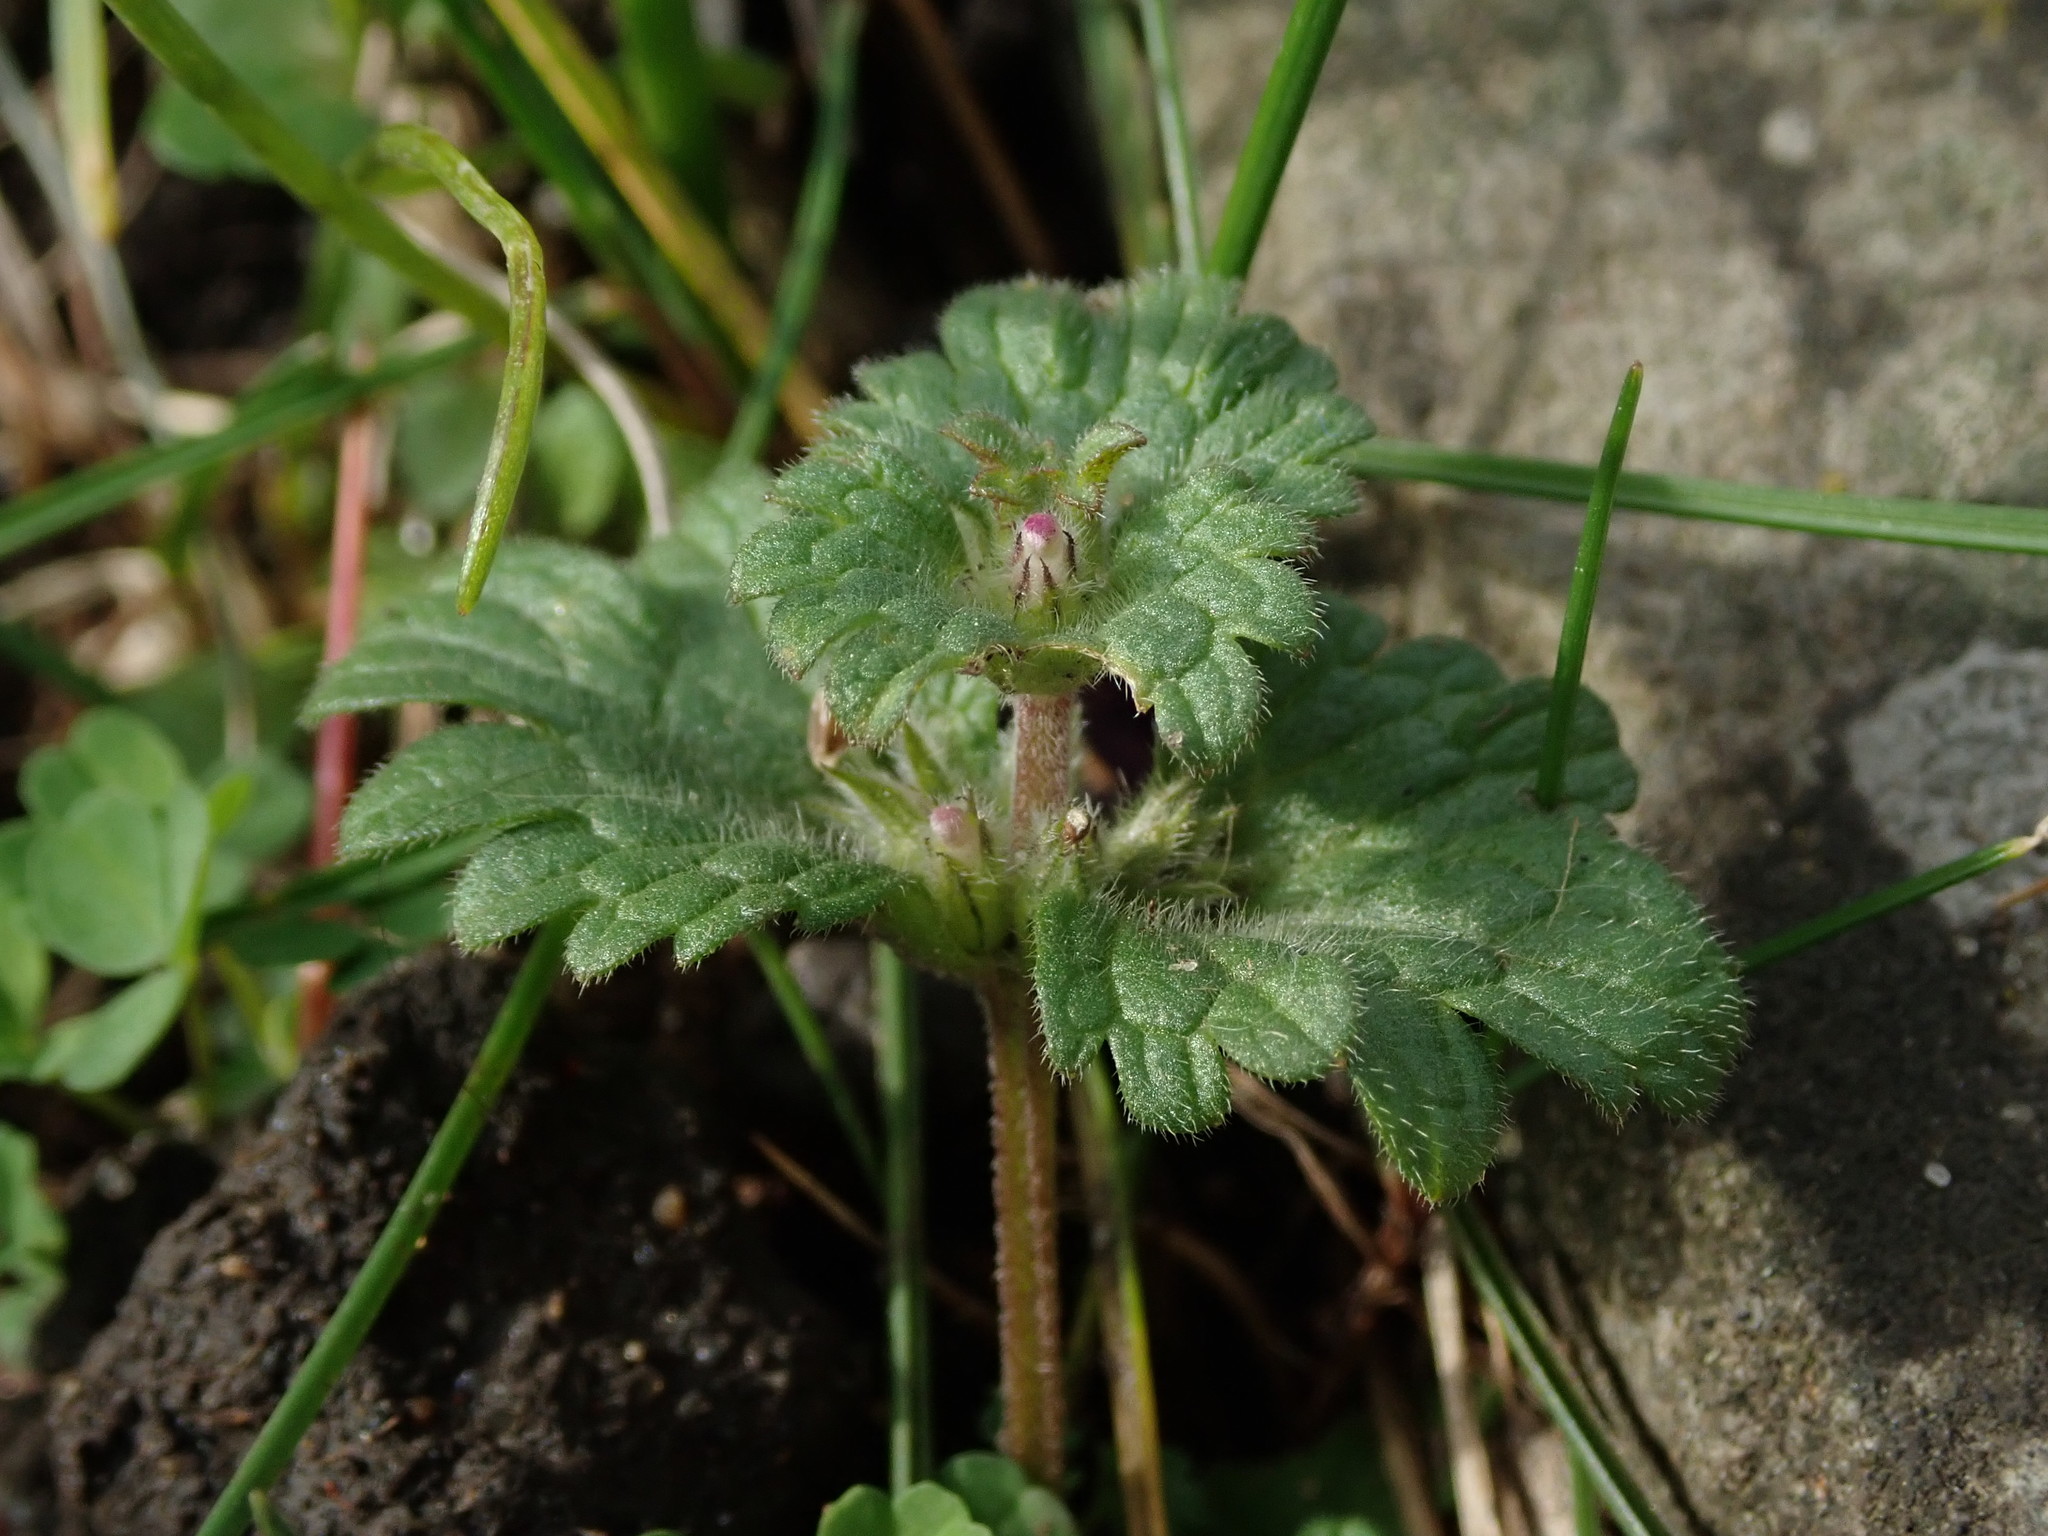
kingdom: Plantae
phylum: Tracheophyta
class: Magnoliopsida
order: Lamiales
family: Lamiaceae
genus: Lamium
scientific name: Lamium amplexicaule
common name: Henbit dead-nettle
